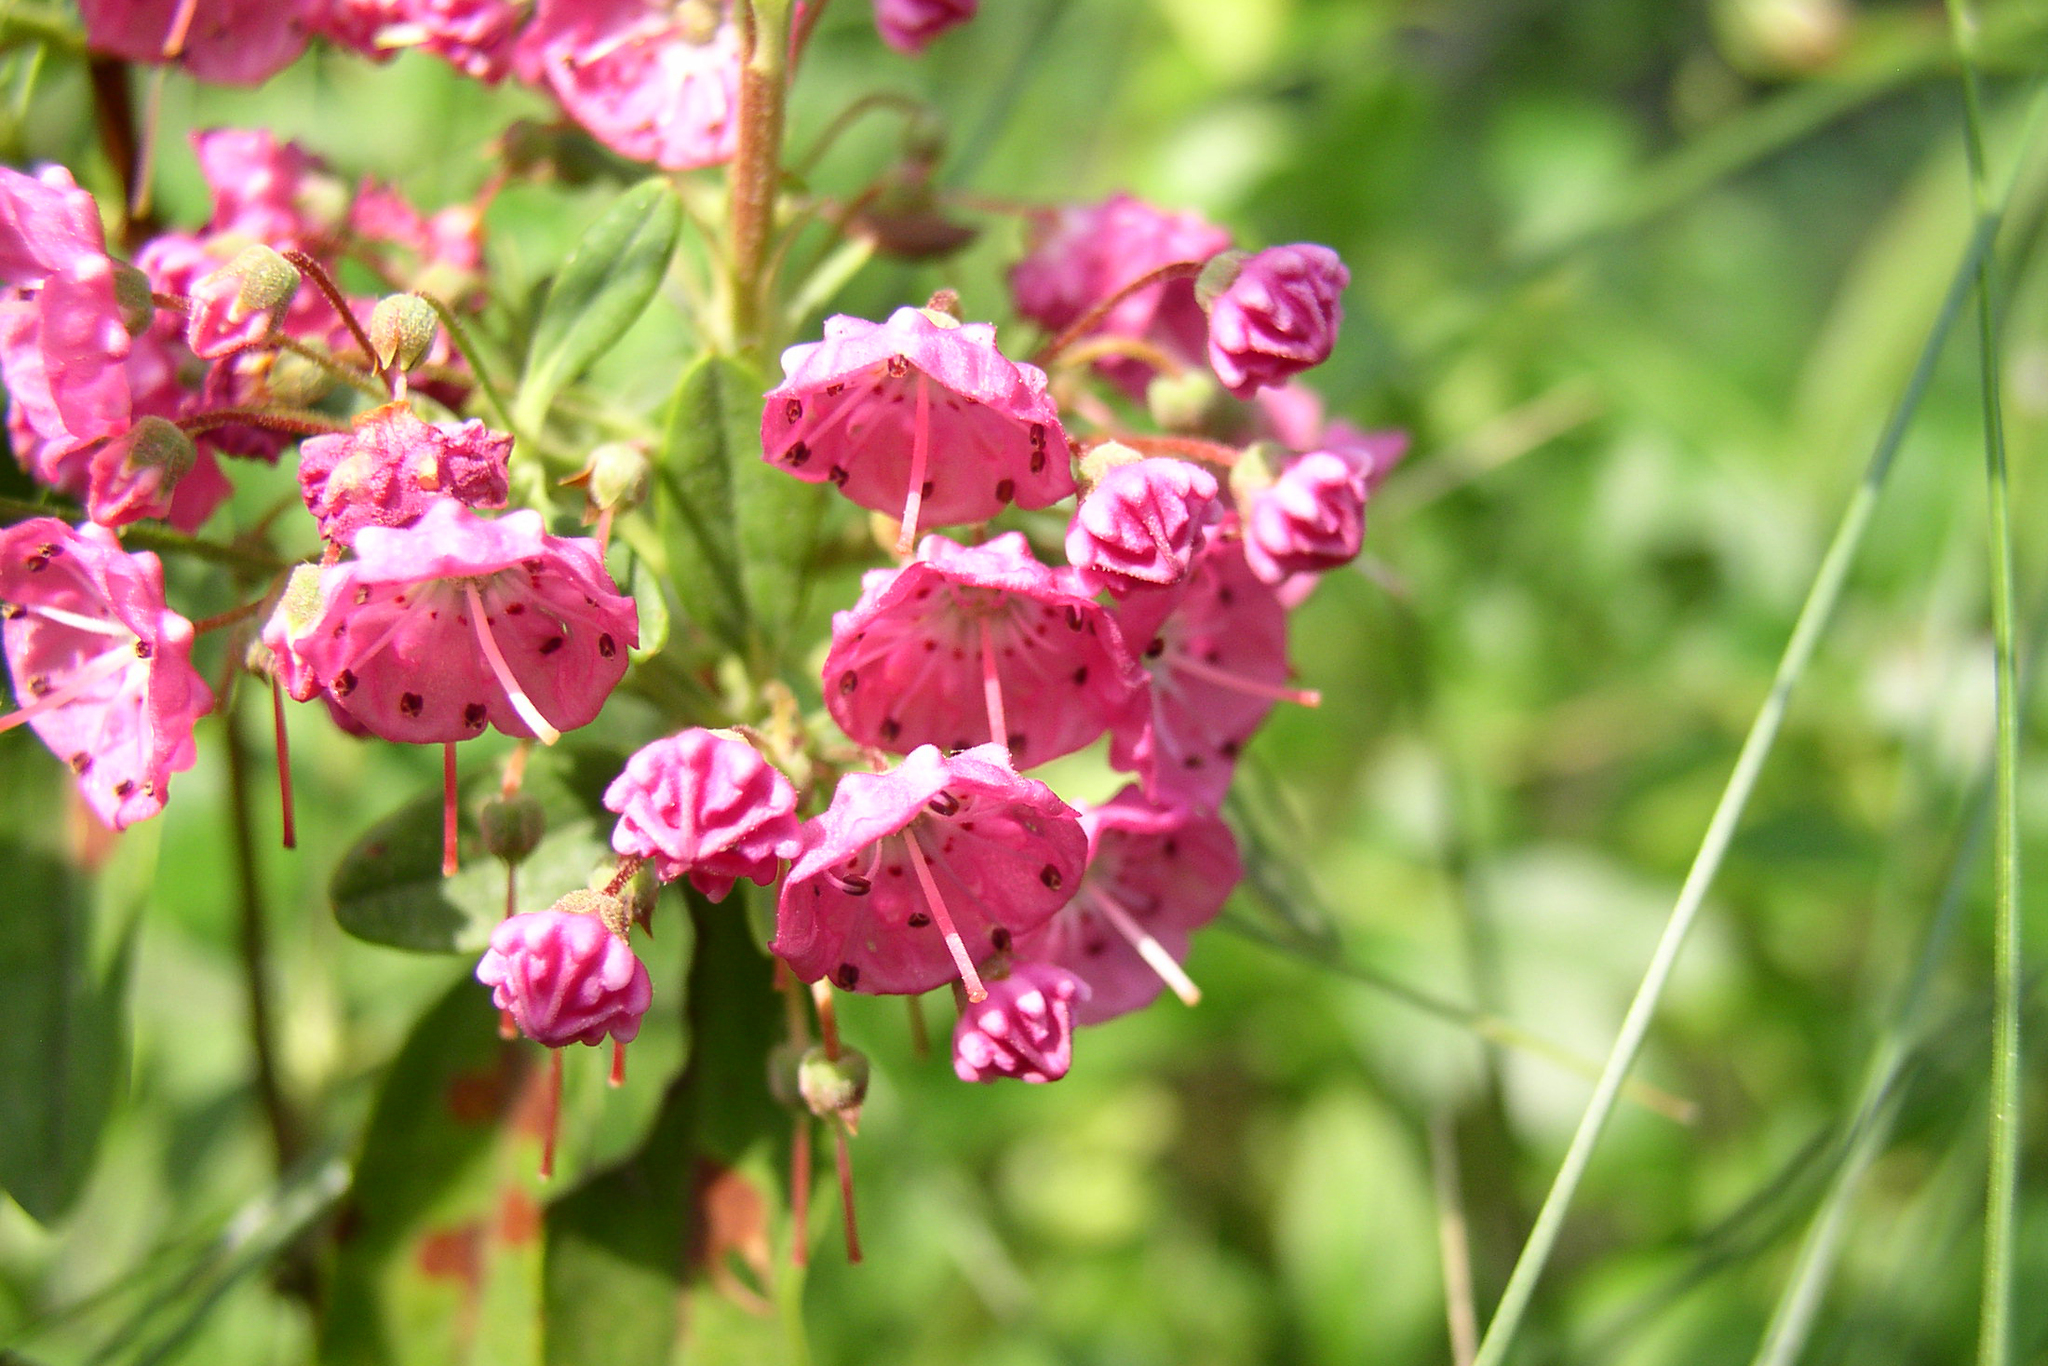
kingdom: Plantae
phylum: Tracheophyta
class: Magnoliopsida
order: Ericales
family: Ericaceae
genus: Kalmia
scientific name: Kalmia polifolia
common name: Bog-laurel
